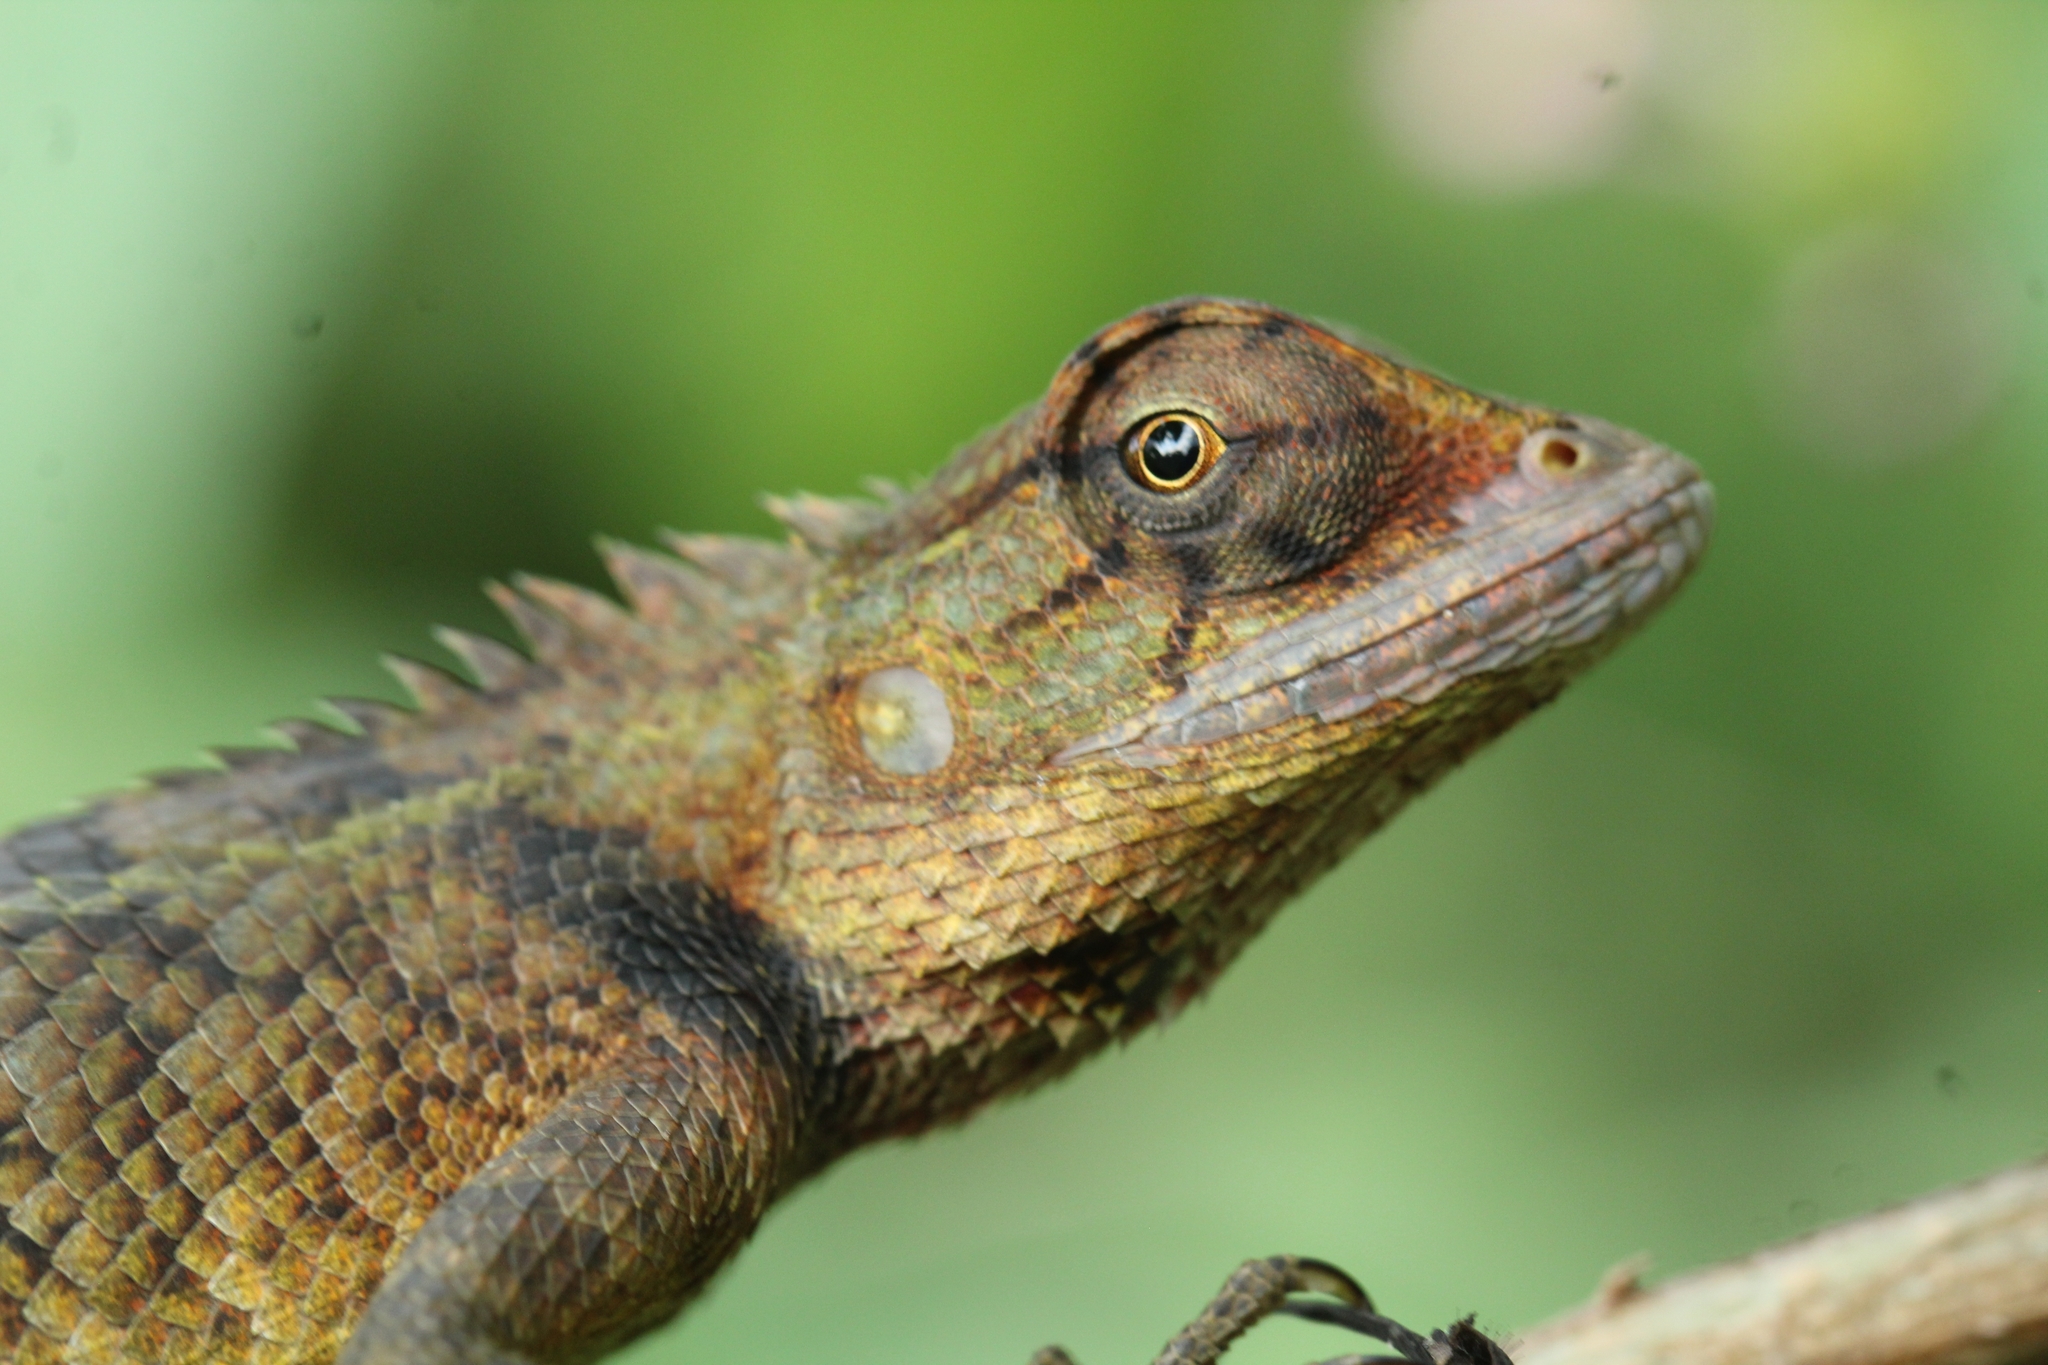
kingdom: Animalia
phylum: Chordata
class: Squamata
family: Agamidae
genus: Calotes
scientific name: Calotes versicolor
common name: Oriental garden lizard
